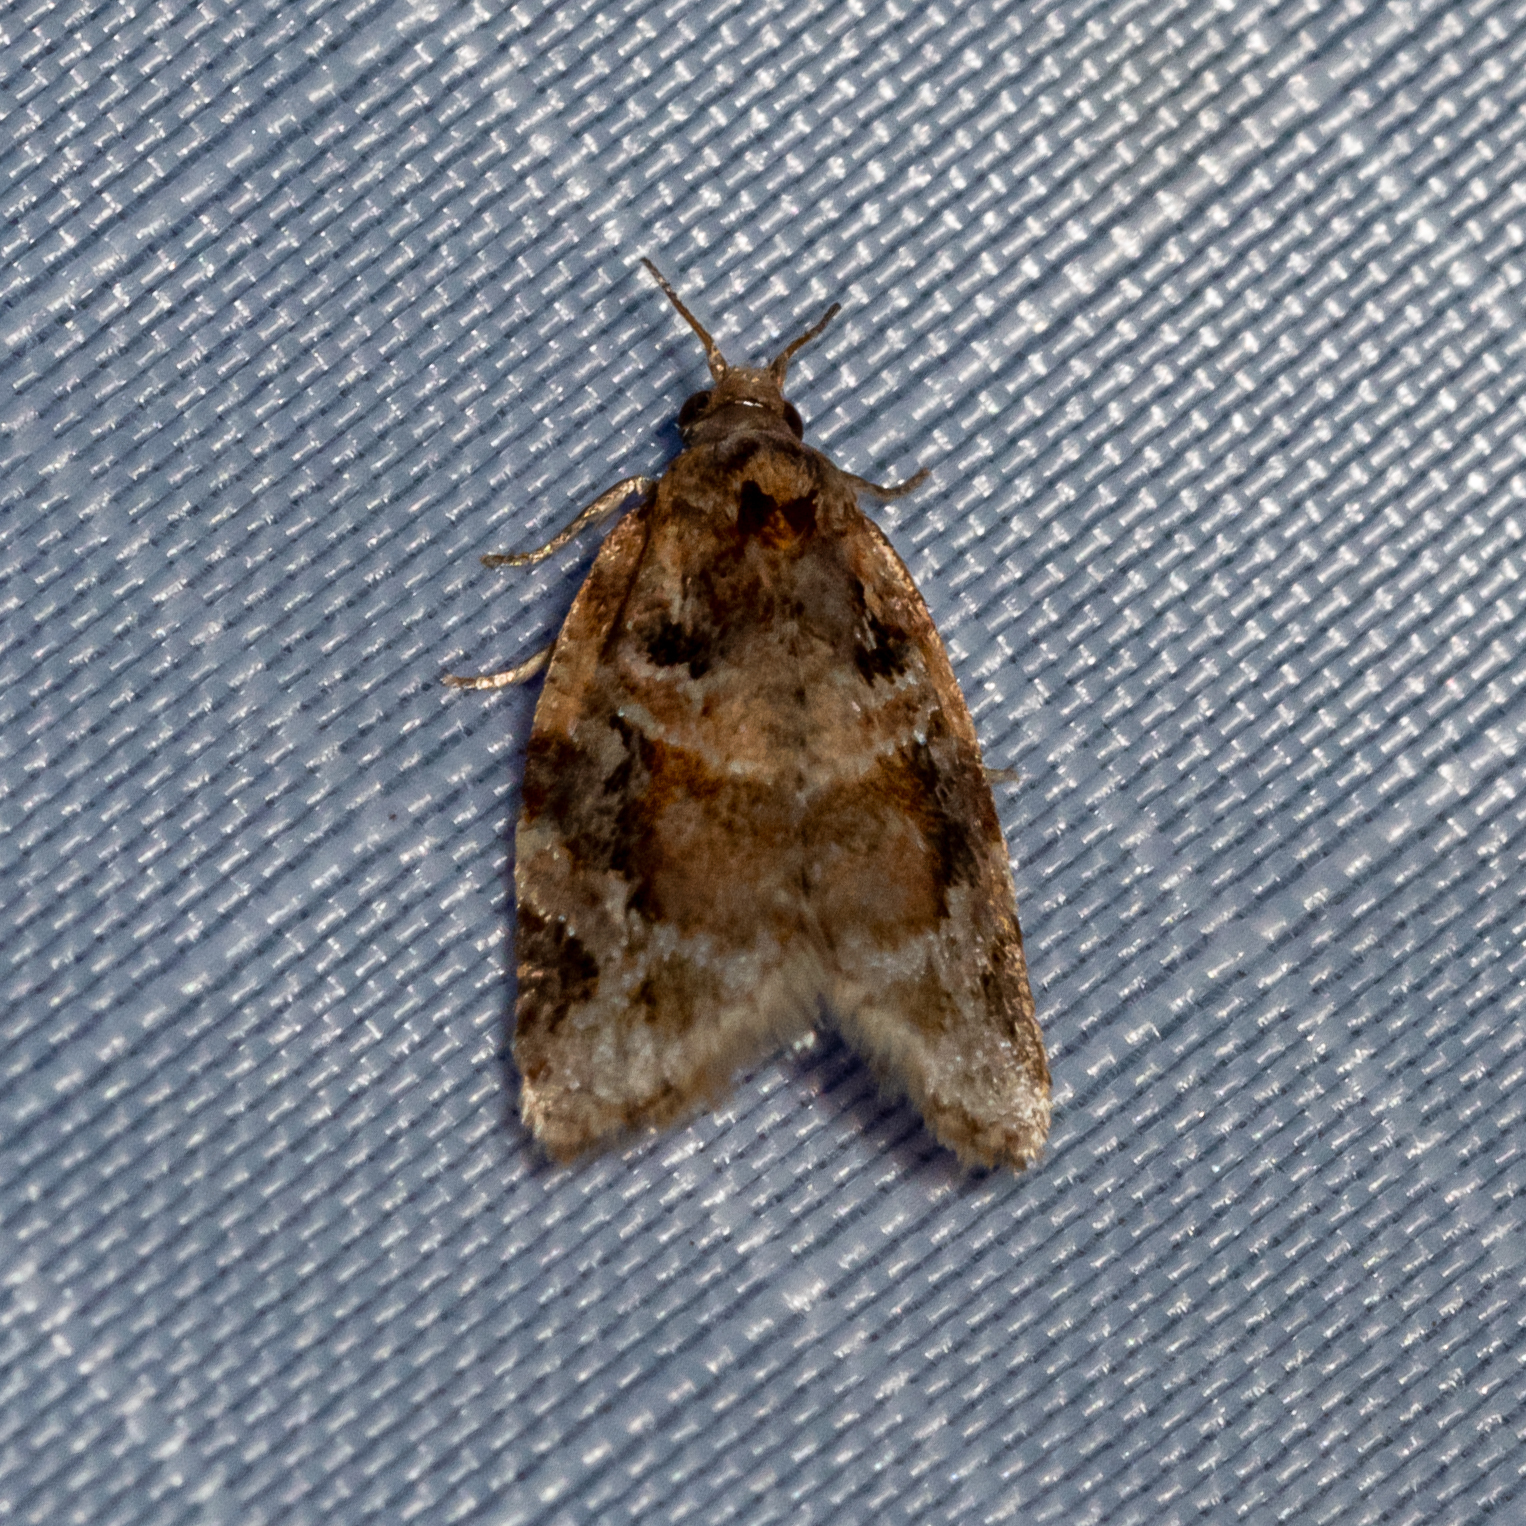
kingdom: Animalia
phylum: Arthropoda
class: Insecta
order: Lepidoptera
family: Tortricidae
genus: Argyrotaenia
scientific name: Argyrotaenia velutinana
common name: Red-banded leafroller moth
